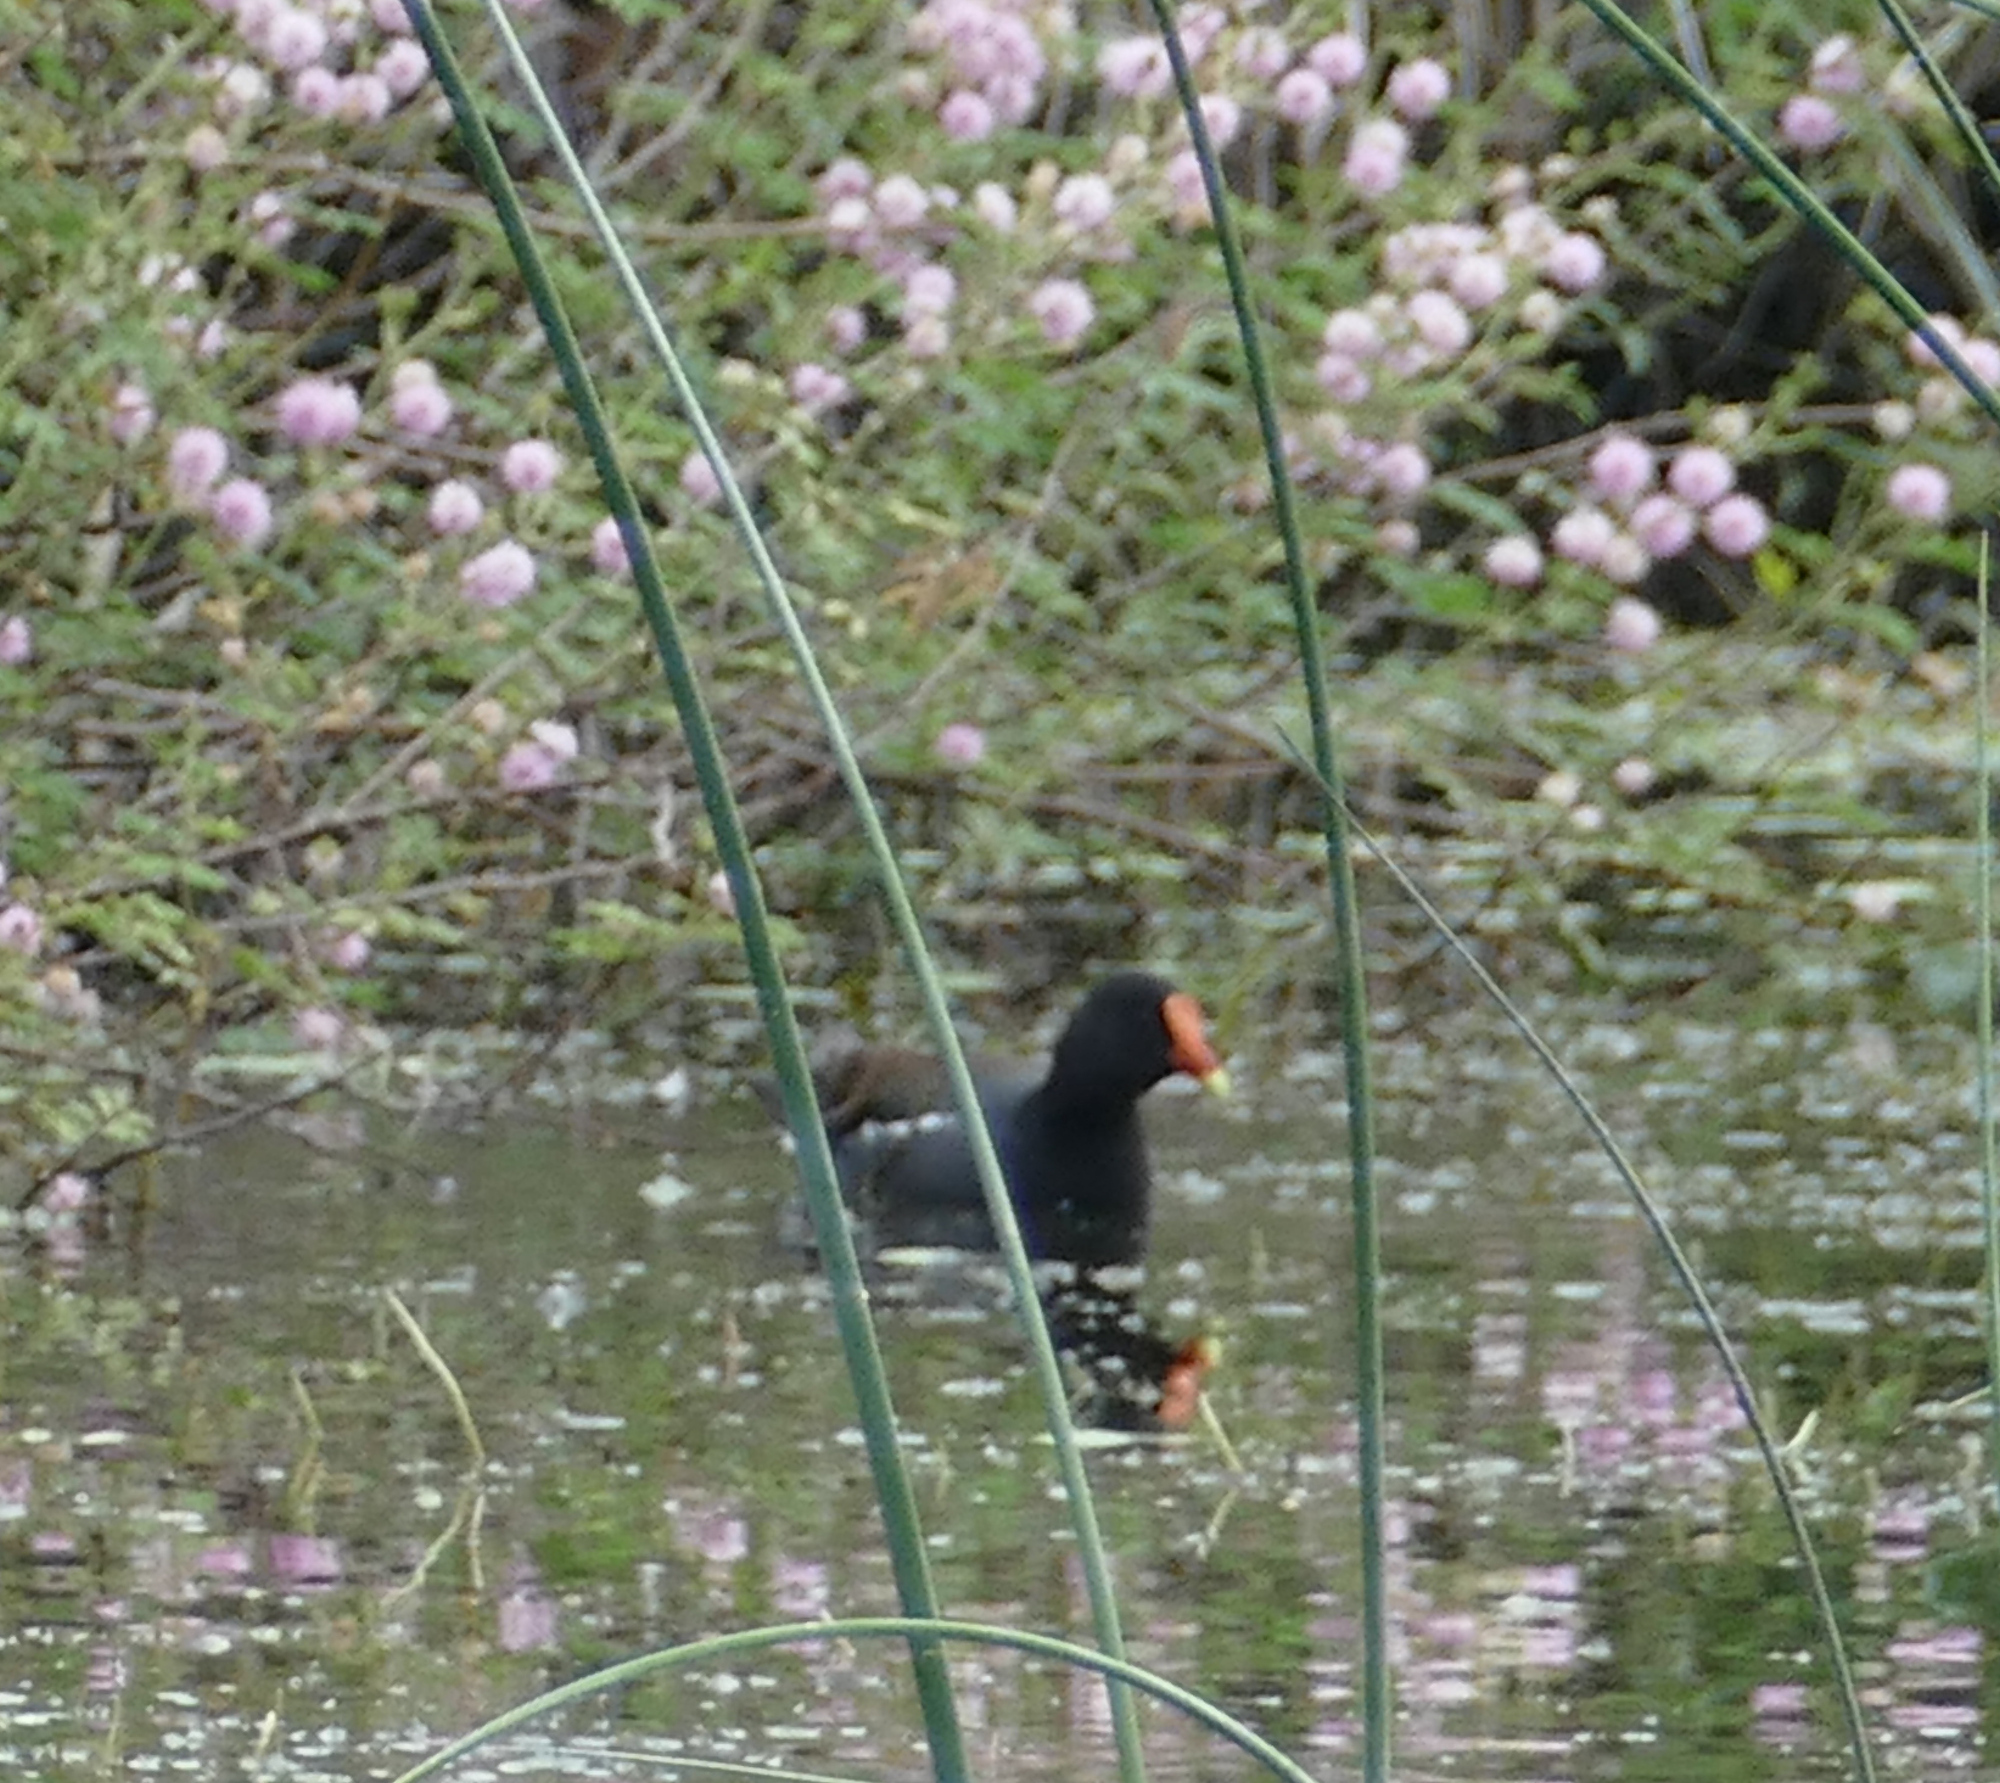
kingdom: Animalia
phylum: Chordata
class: Aves
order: Gruiformes
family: Rallidae
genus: Gallinula
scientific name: Gallinula chloropus
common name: Common moorhen
